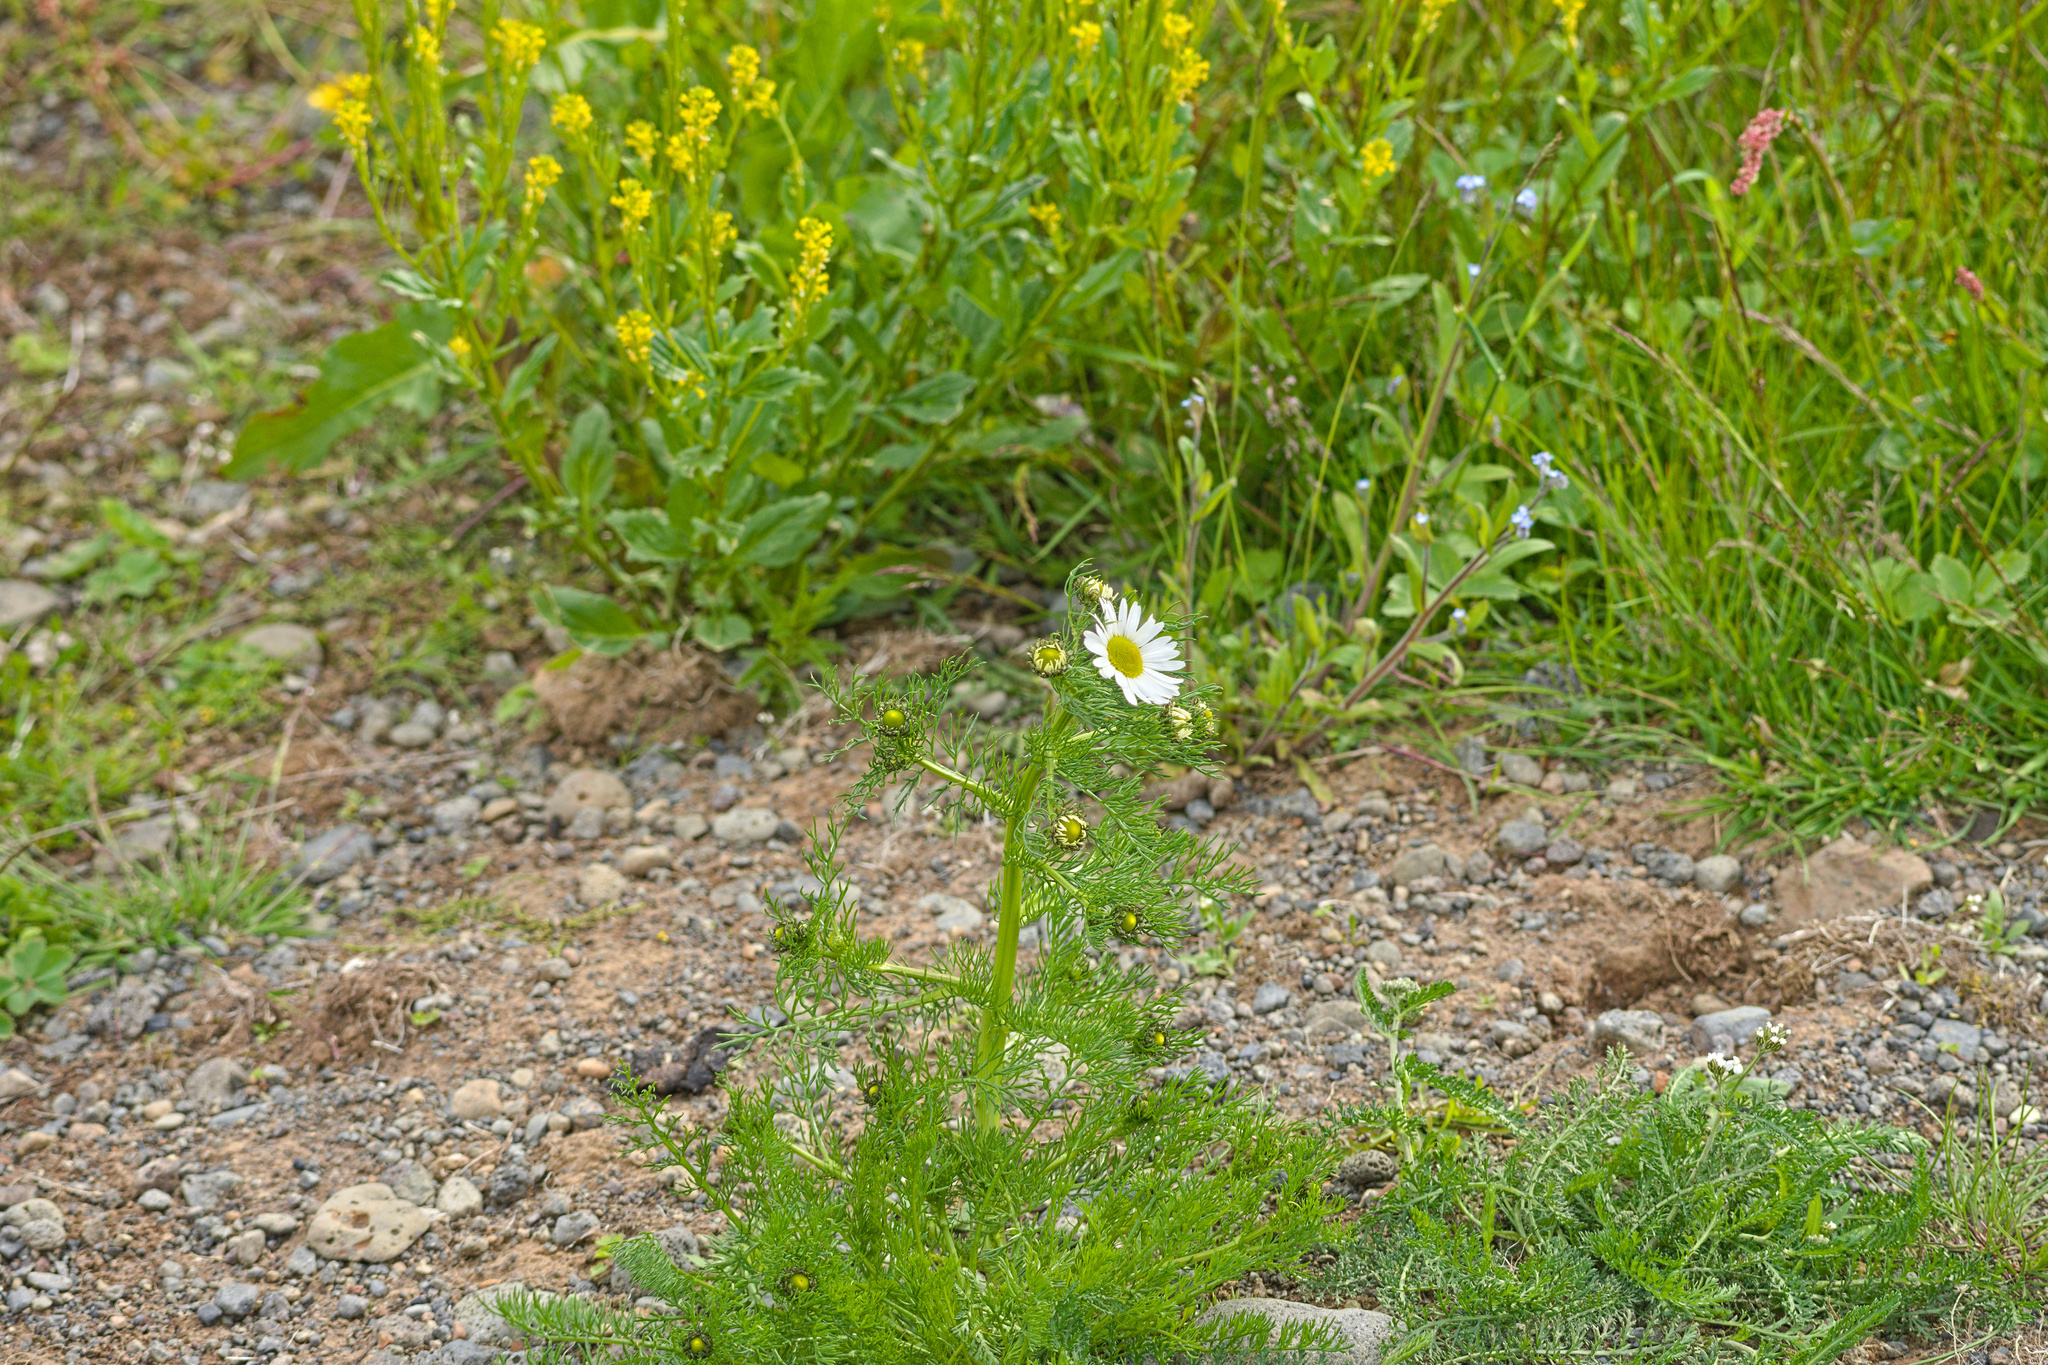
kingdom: Plantae
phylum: Tracheophyta
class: Magnoliopsida
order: Asterales
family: Asteraceae
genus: Tripleurospermum
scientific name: Tripleurospermum maritimum
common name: Sea mayweed
